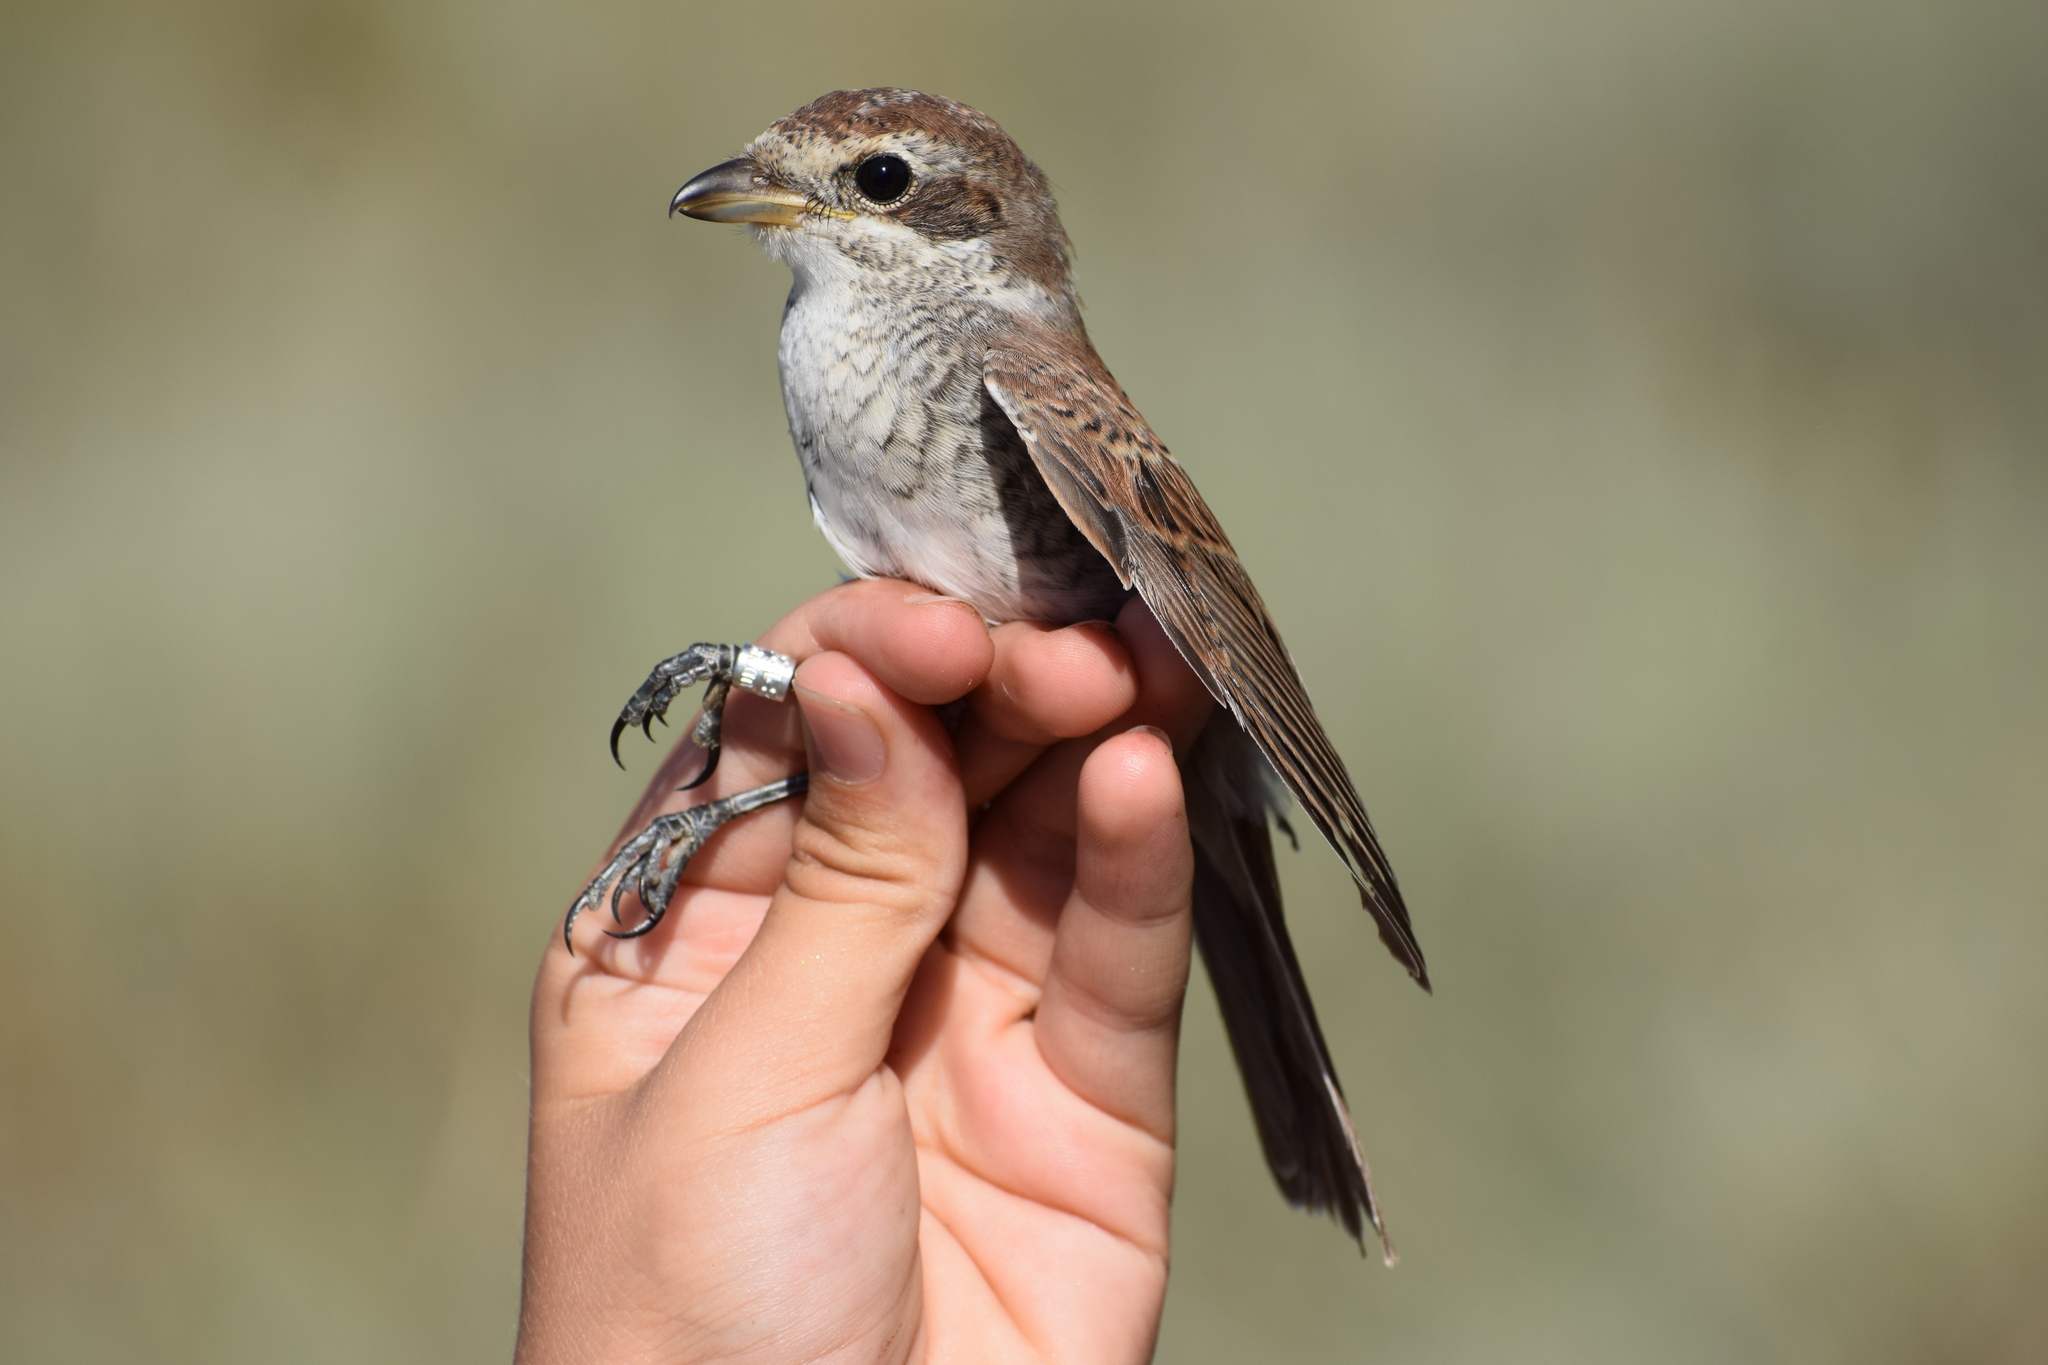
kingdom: Animalia
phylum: Chordata
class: Aves
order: Passeriformes
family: Laniidae
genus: Lanius
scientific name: Lanius collurio
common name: Red-backed shrike
